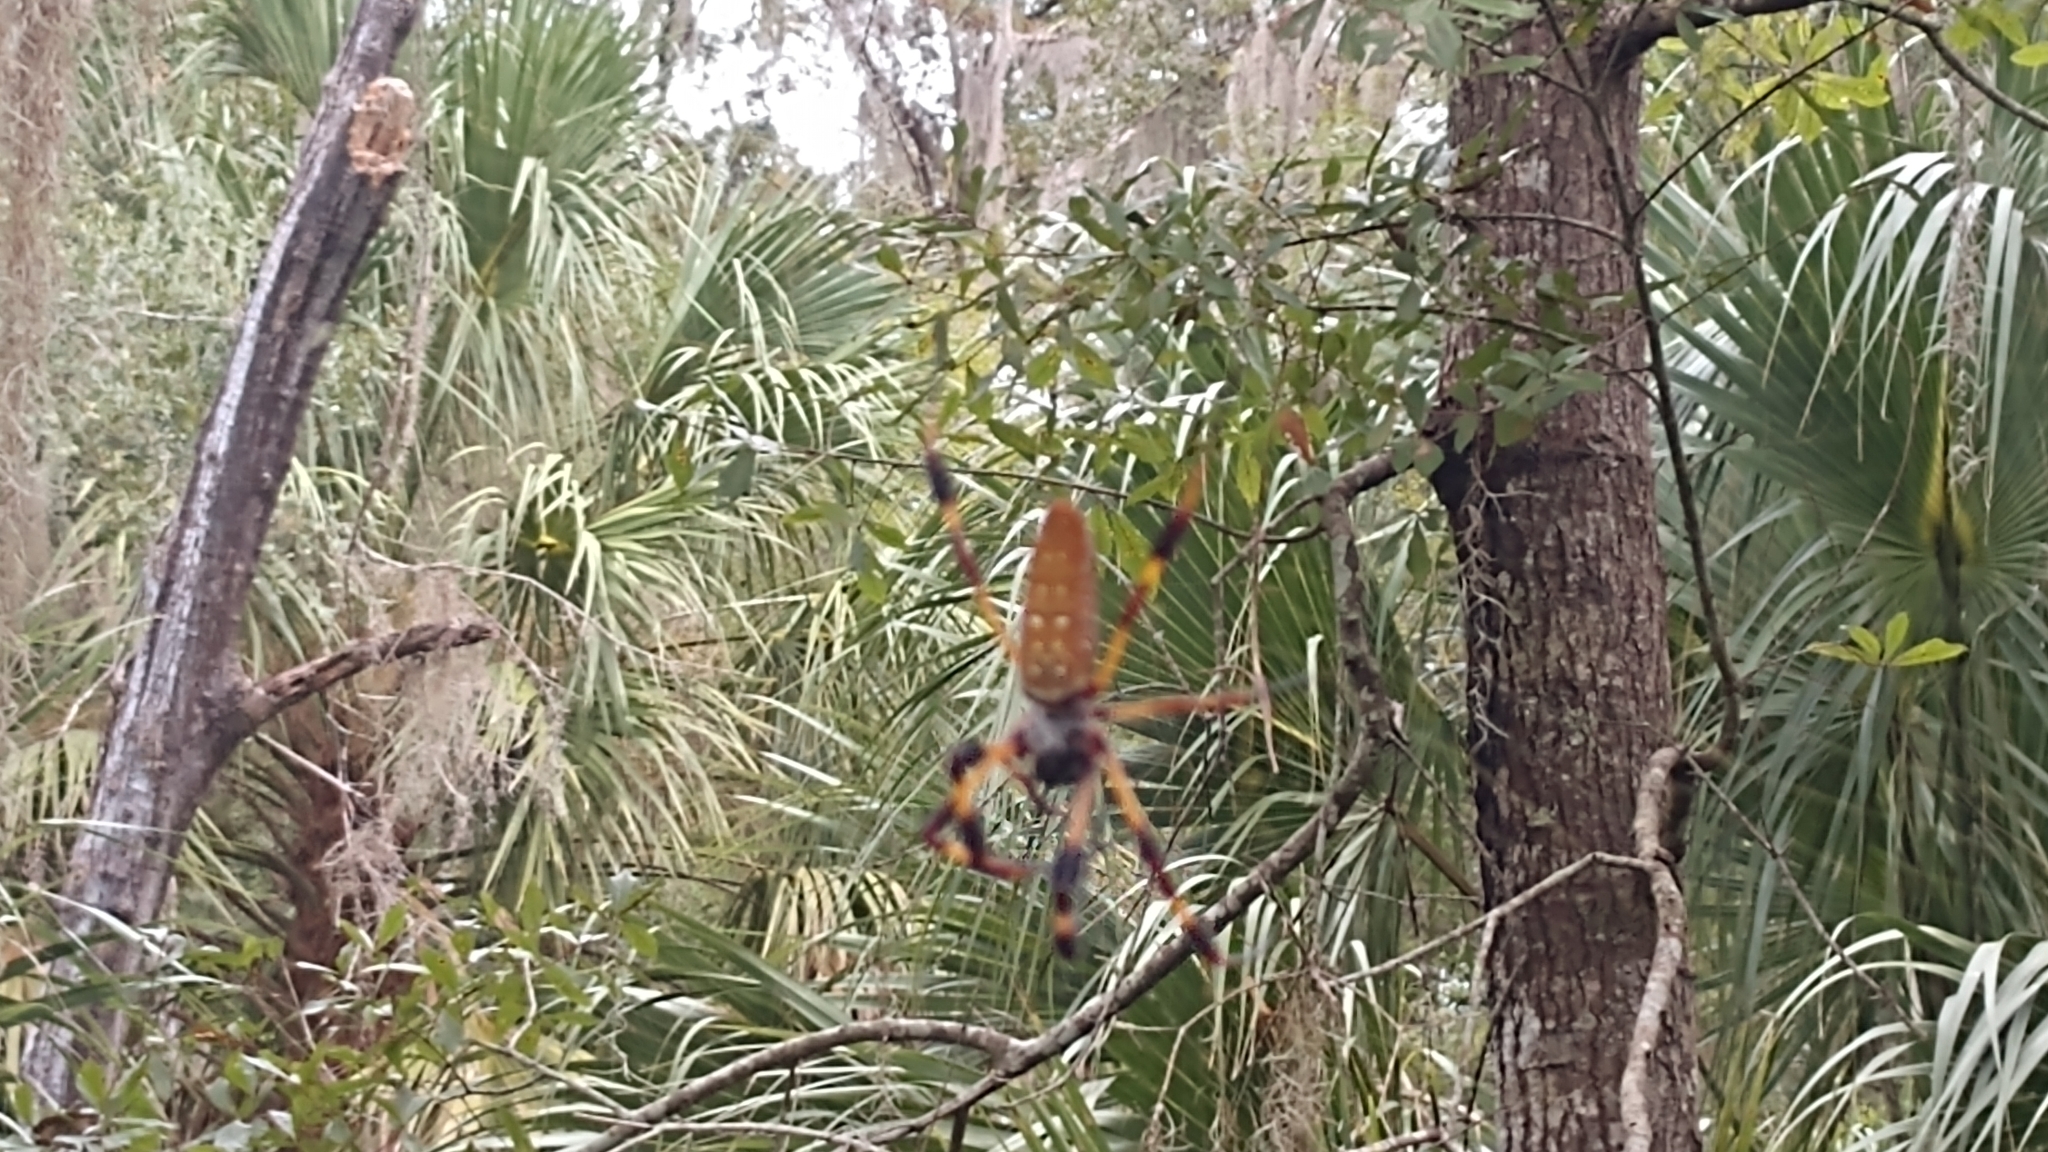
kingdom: Animalia
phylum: Arthropoda
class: Arachnida
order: Araneae
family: Araneidae
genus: Trichonephila
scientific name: Trichonephila clavipes
